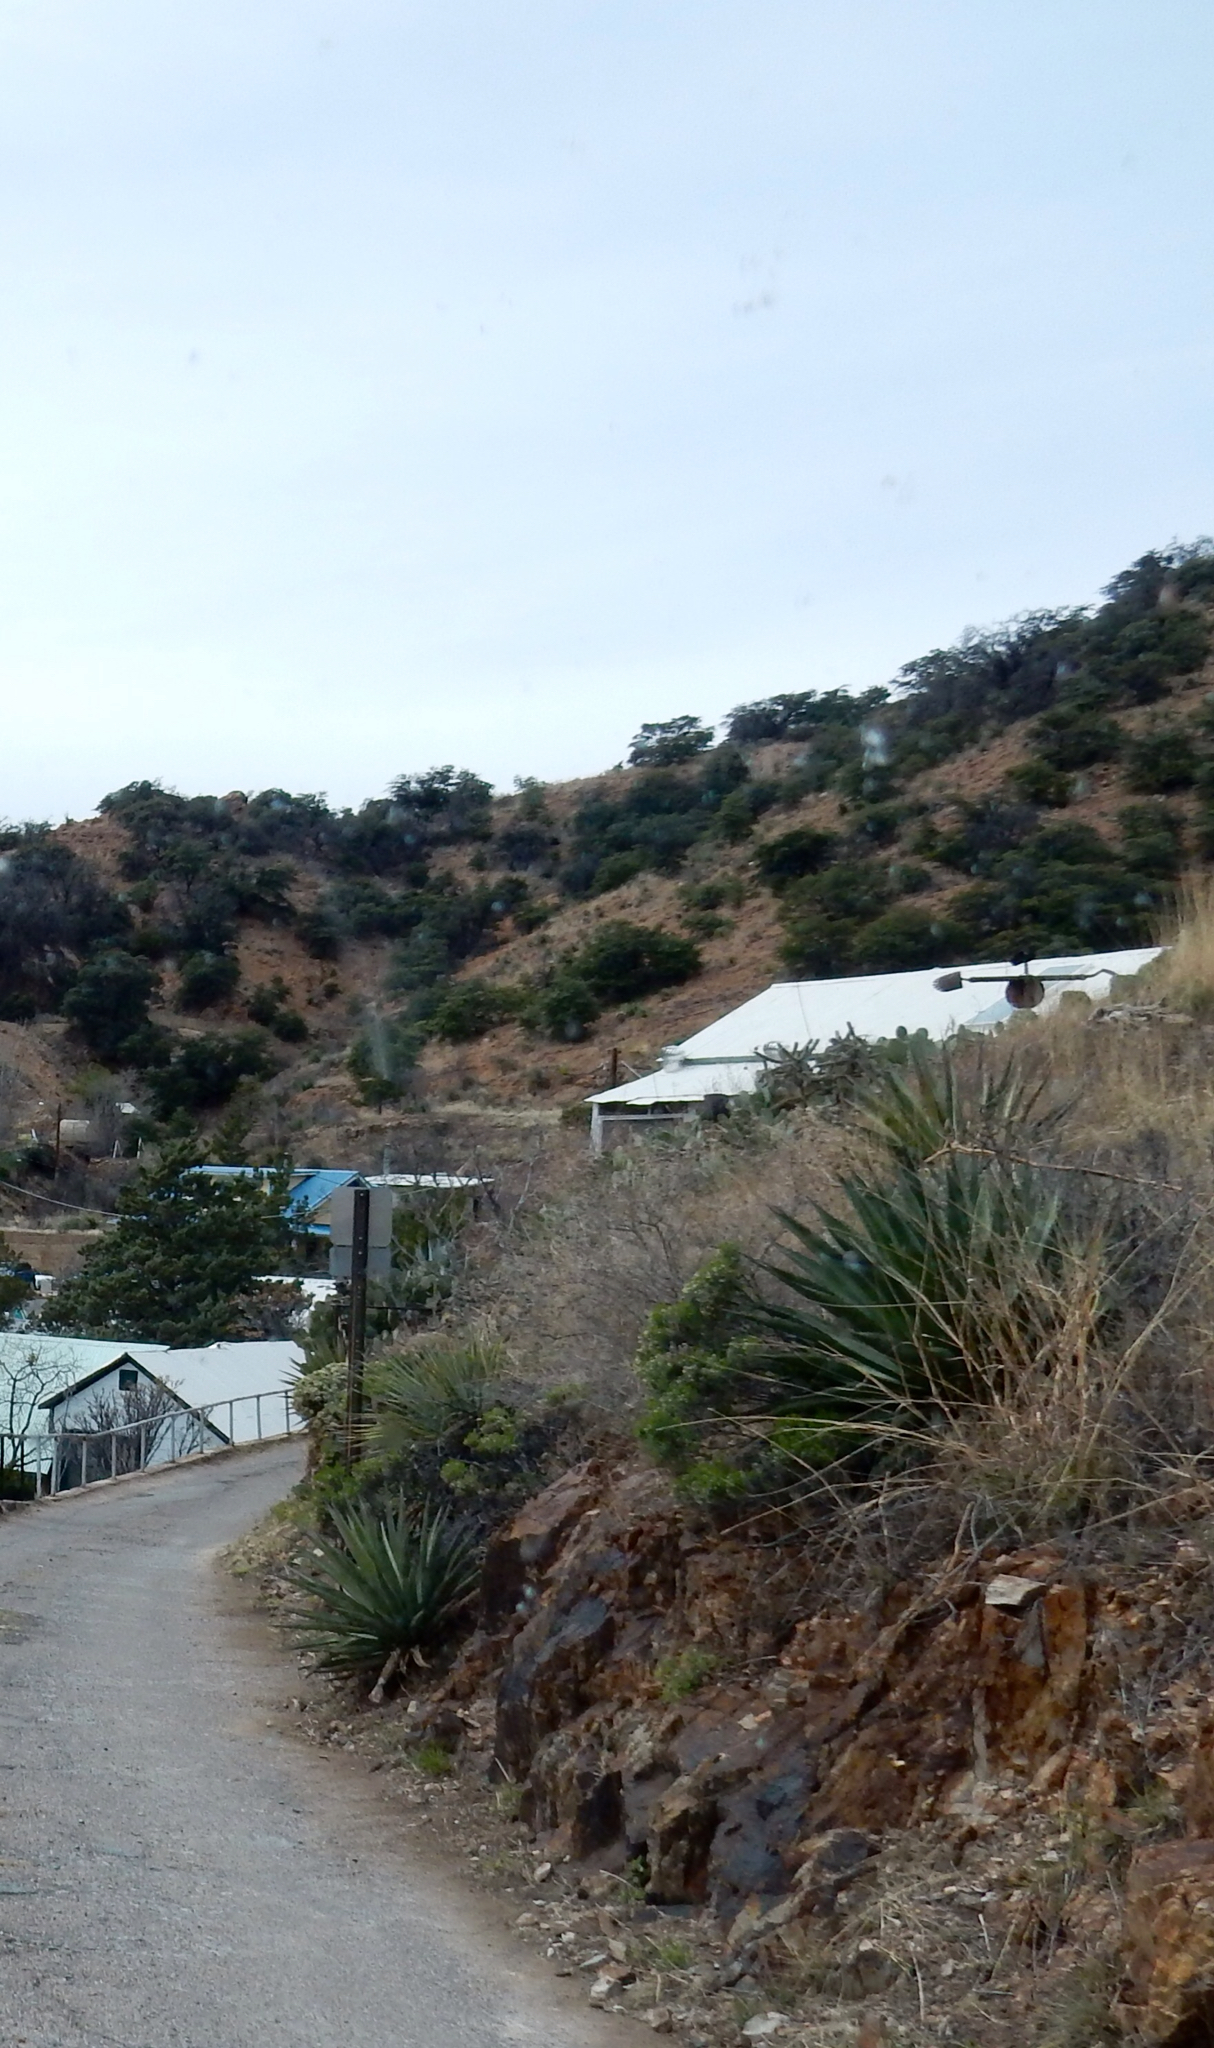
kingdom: Plantae
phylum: Tracheophyta
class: Liliopsida
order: Asparagales
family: Asparagaceae
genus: Agave
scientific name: Agave palmeri
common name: Palmer agave
